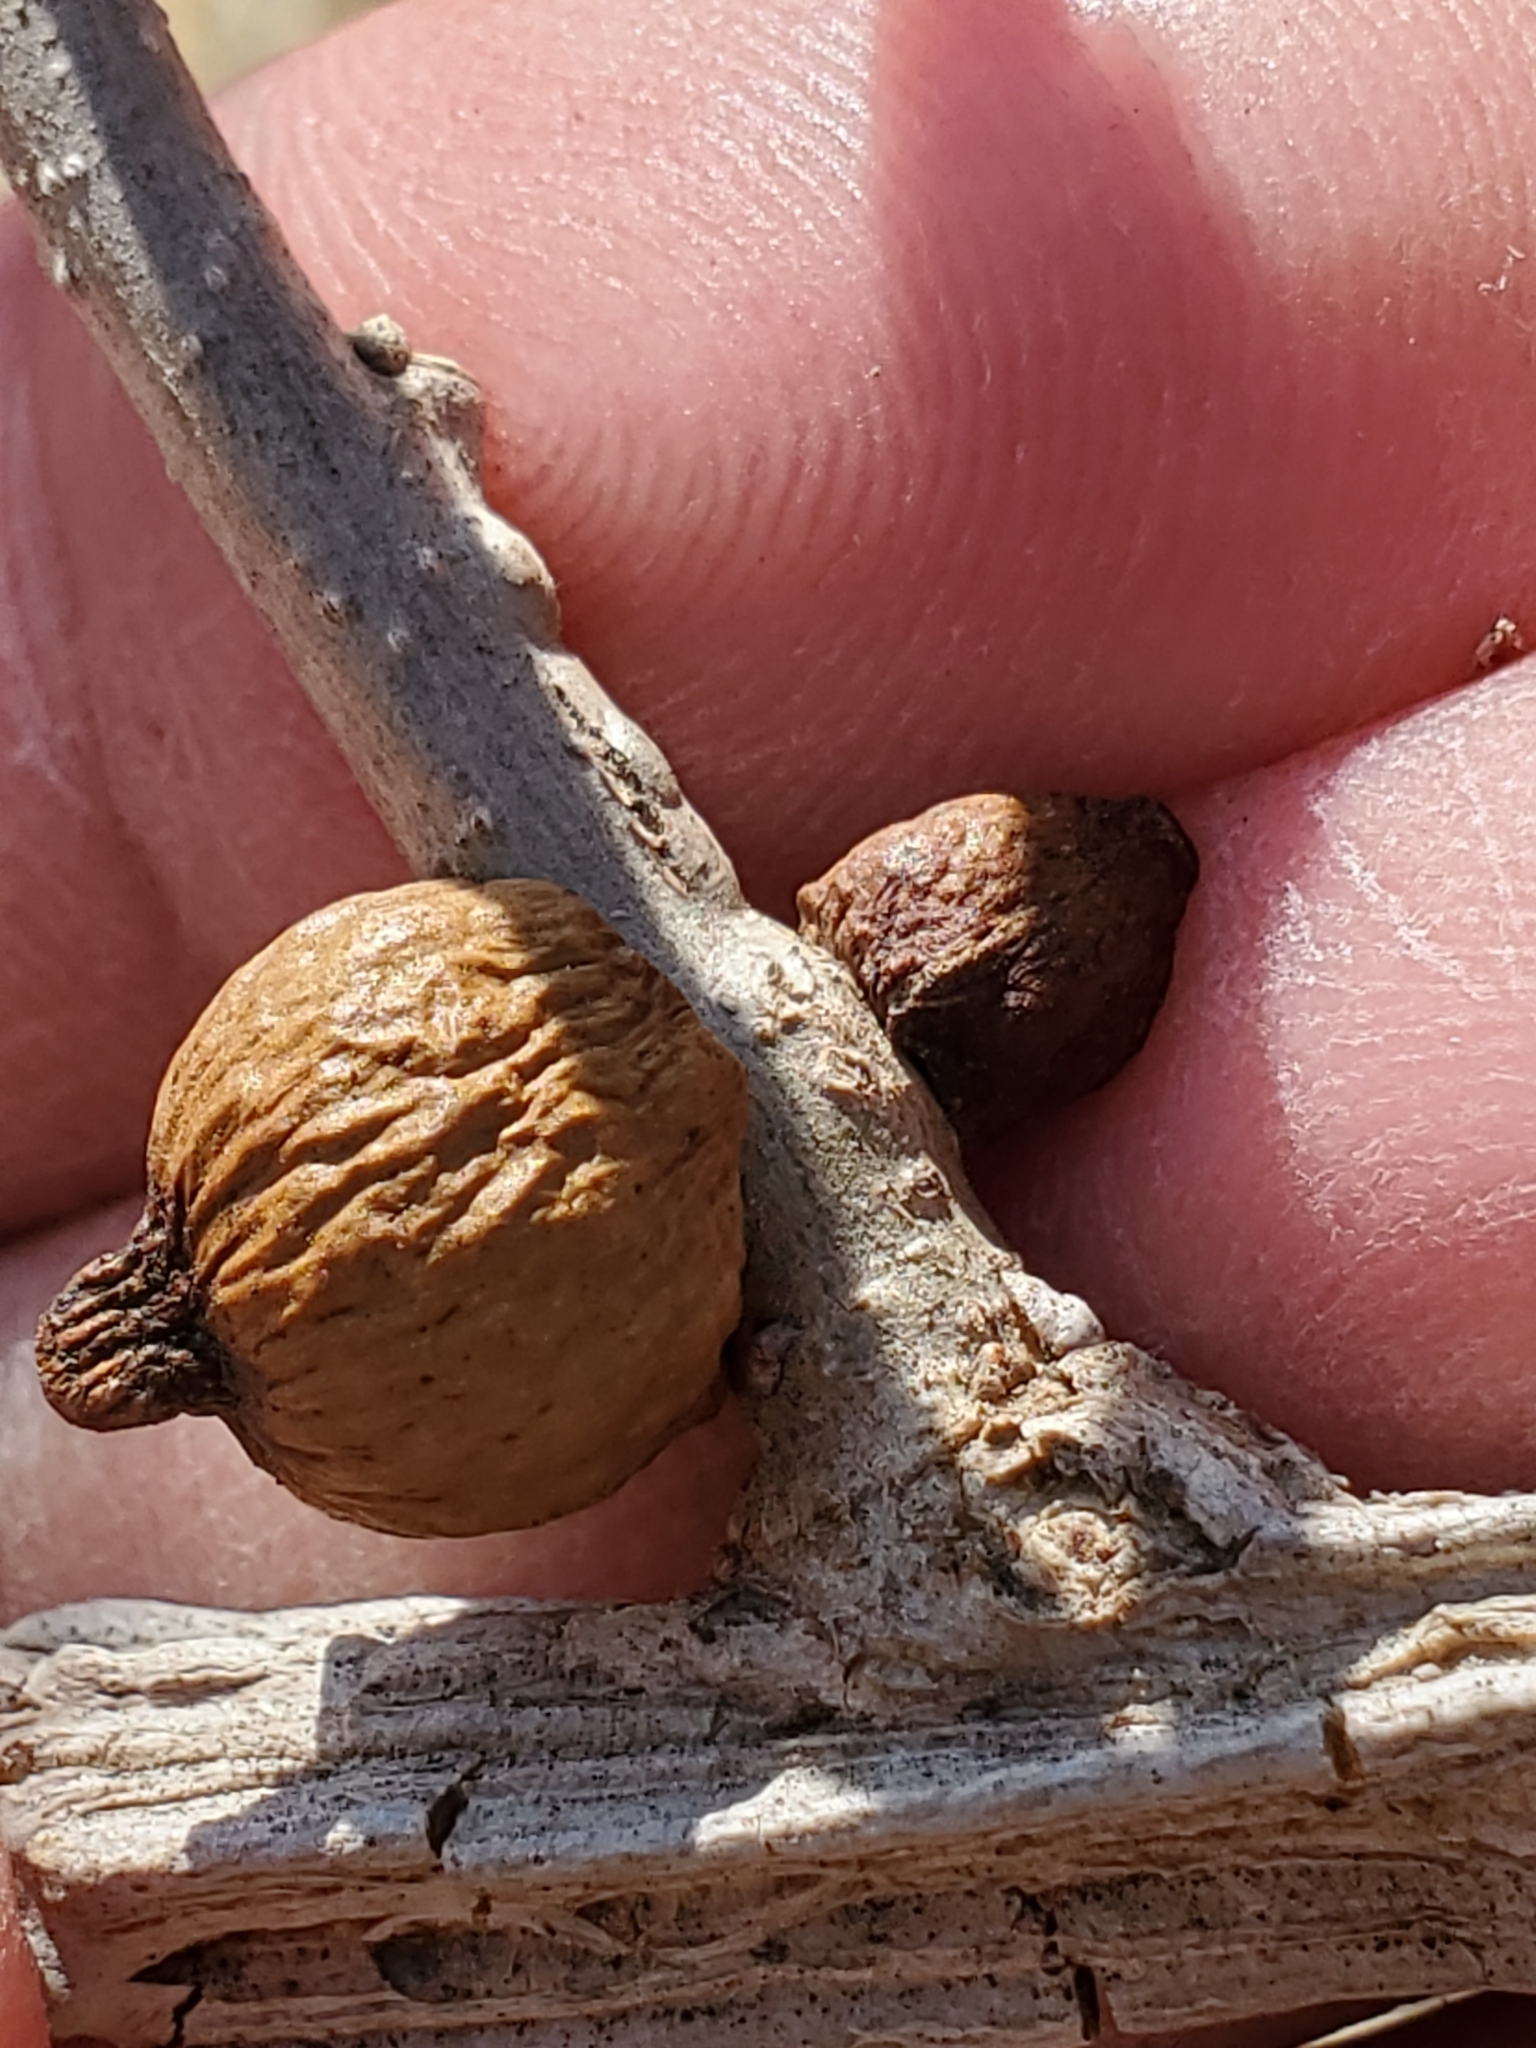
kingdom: Animalia
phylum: Arthropoda
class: Insecta
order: Hymenoptera
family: Cynipidae
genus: Disholcaspis
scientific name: Disholcaspis
